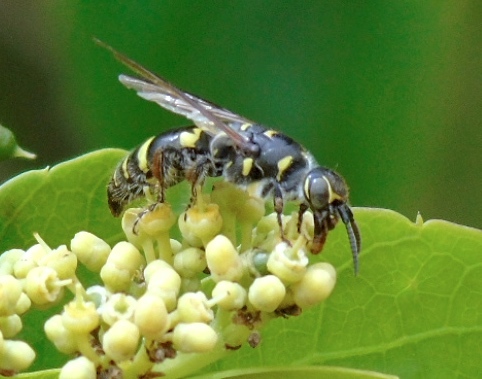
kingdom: Animalia
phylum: Arthropoda
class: Insecta
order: Hymenoptera
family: Tiphiidae
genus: Myzinum
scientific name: Myzinum
